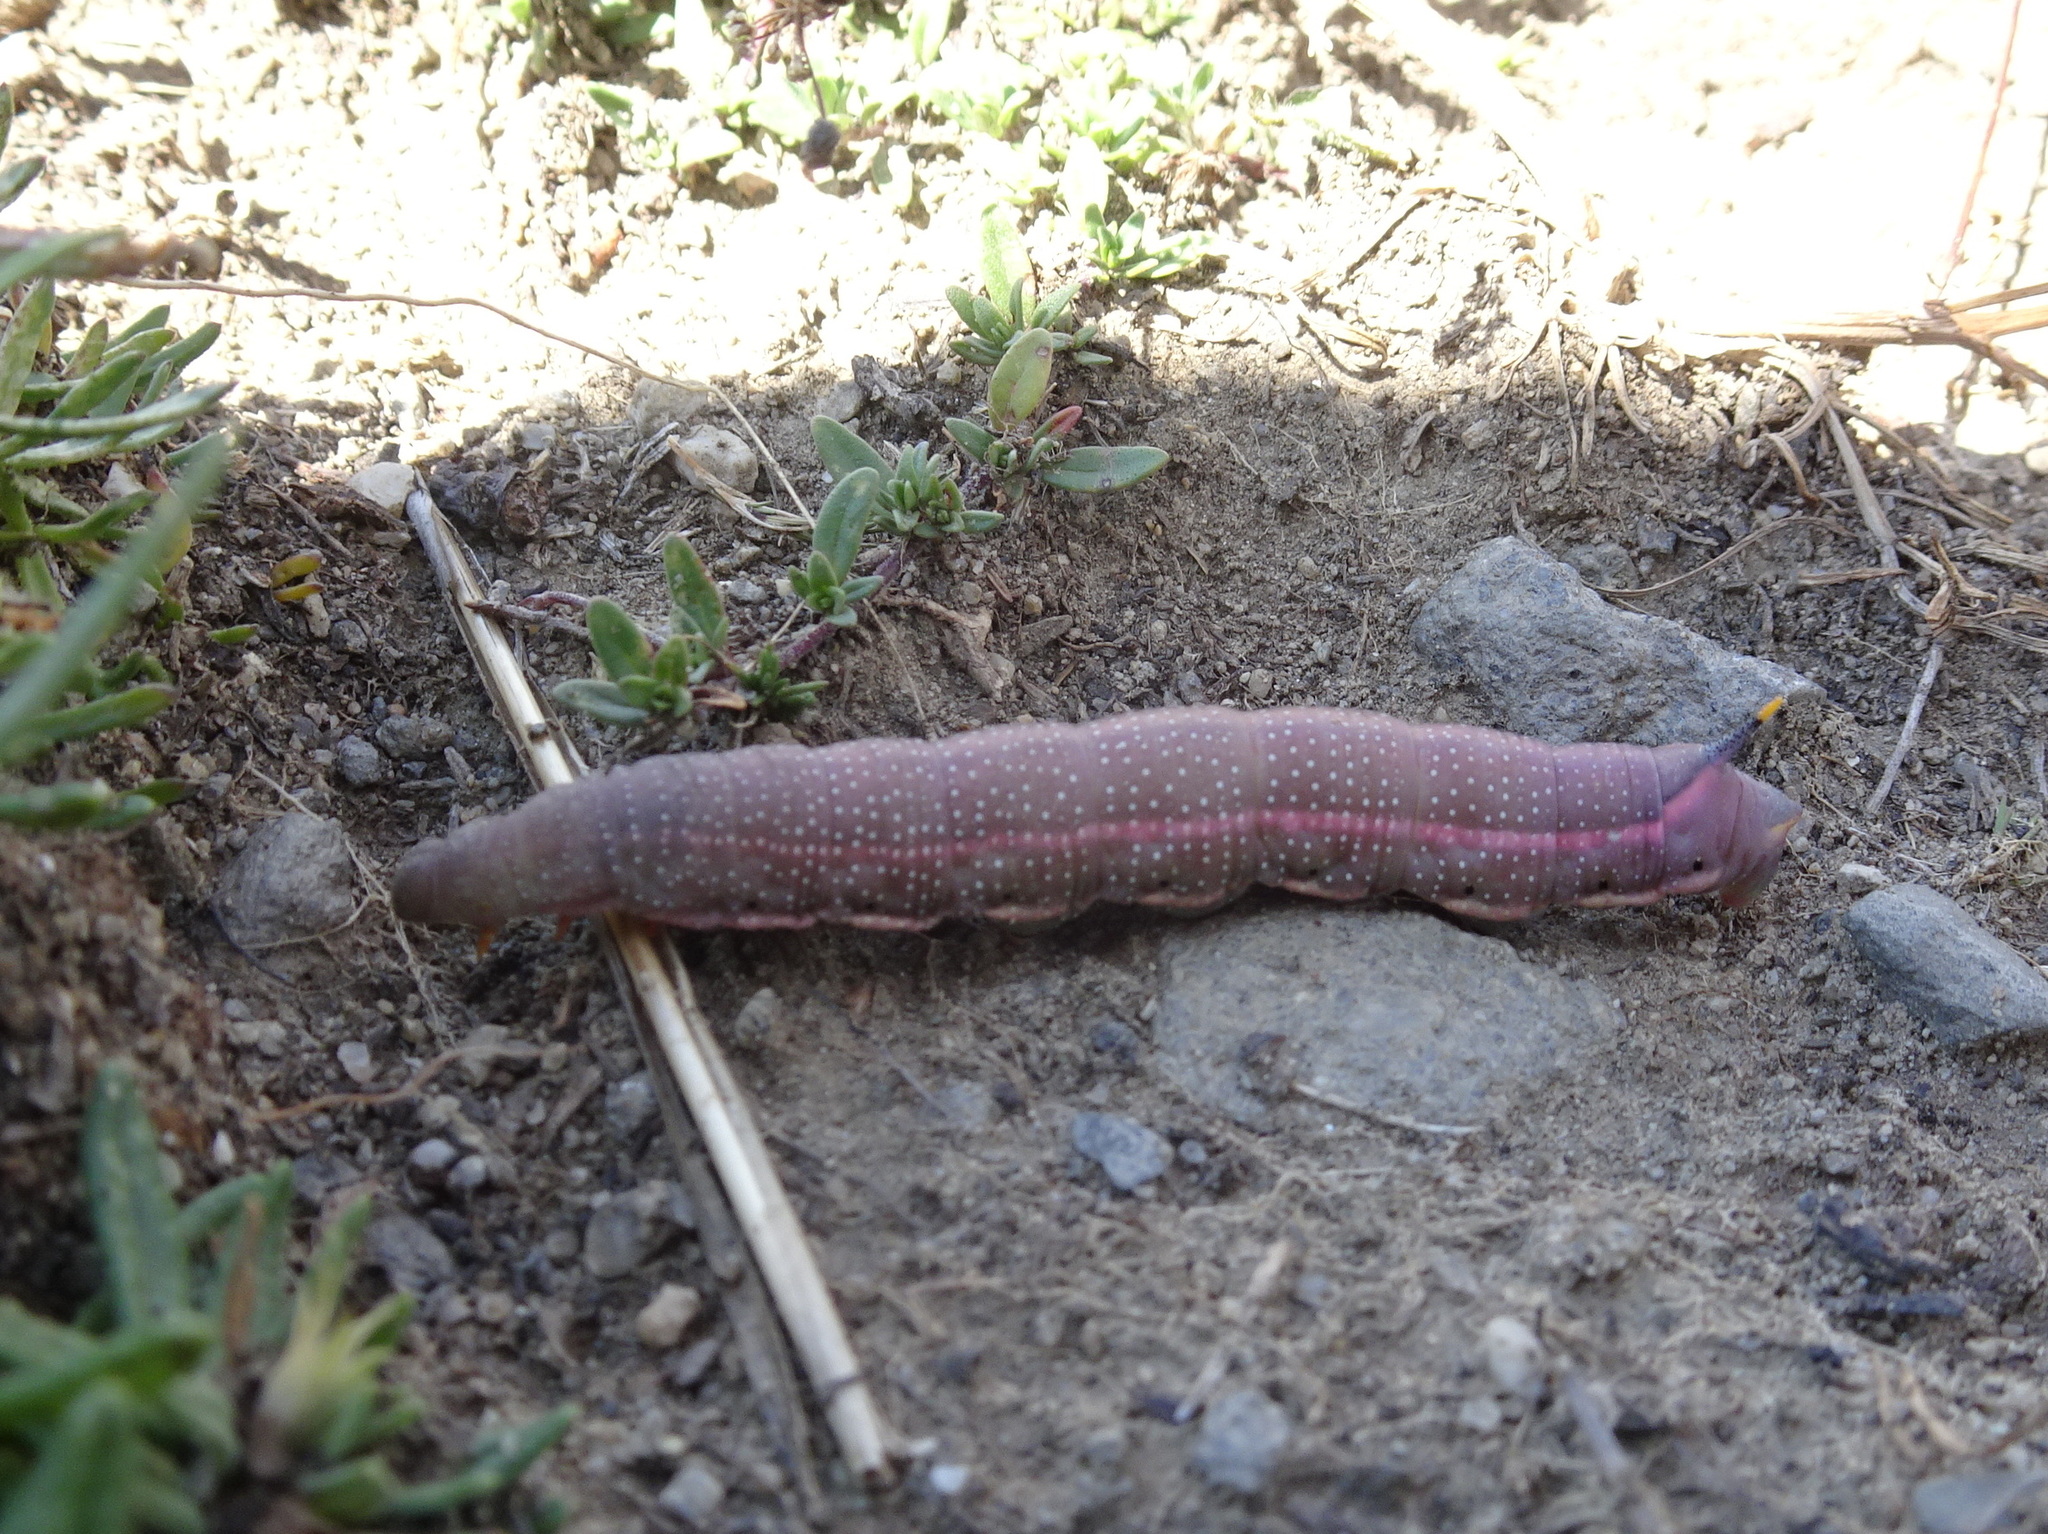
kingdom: Animalia
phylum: Arthropoda
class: Insecta
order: Lepidoptera
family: Sphingidae
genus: Macroglossum
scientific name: Macroglossum stellatarum
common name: Humming-bird hawk-moth
